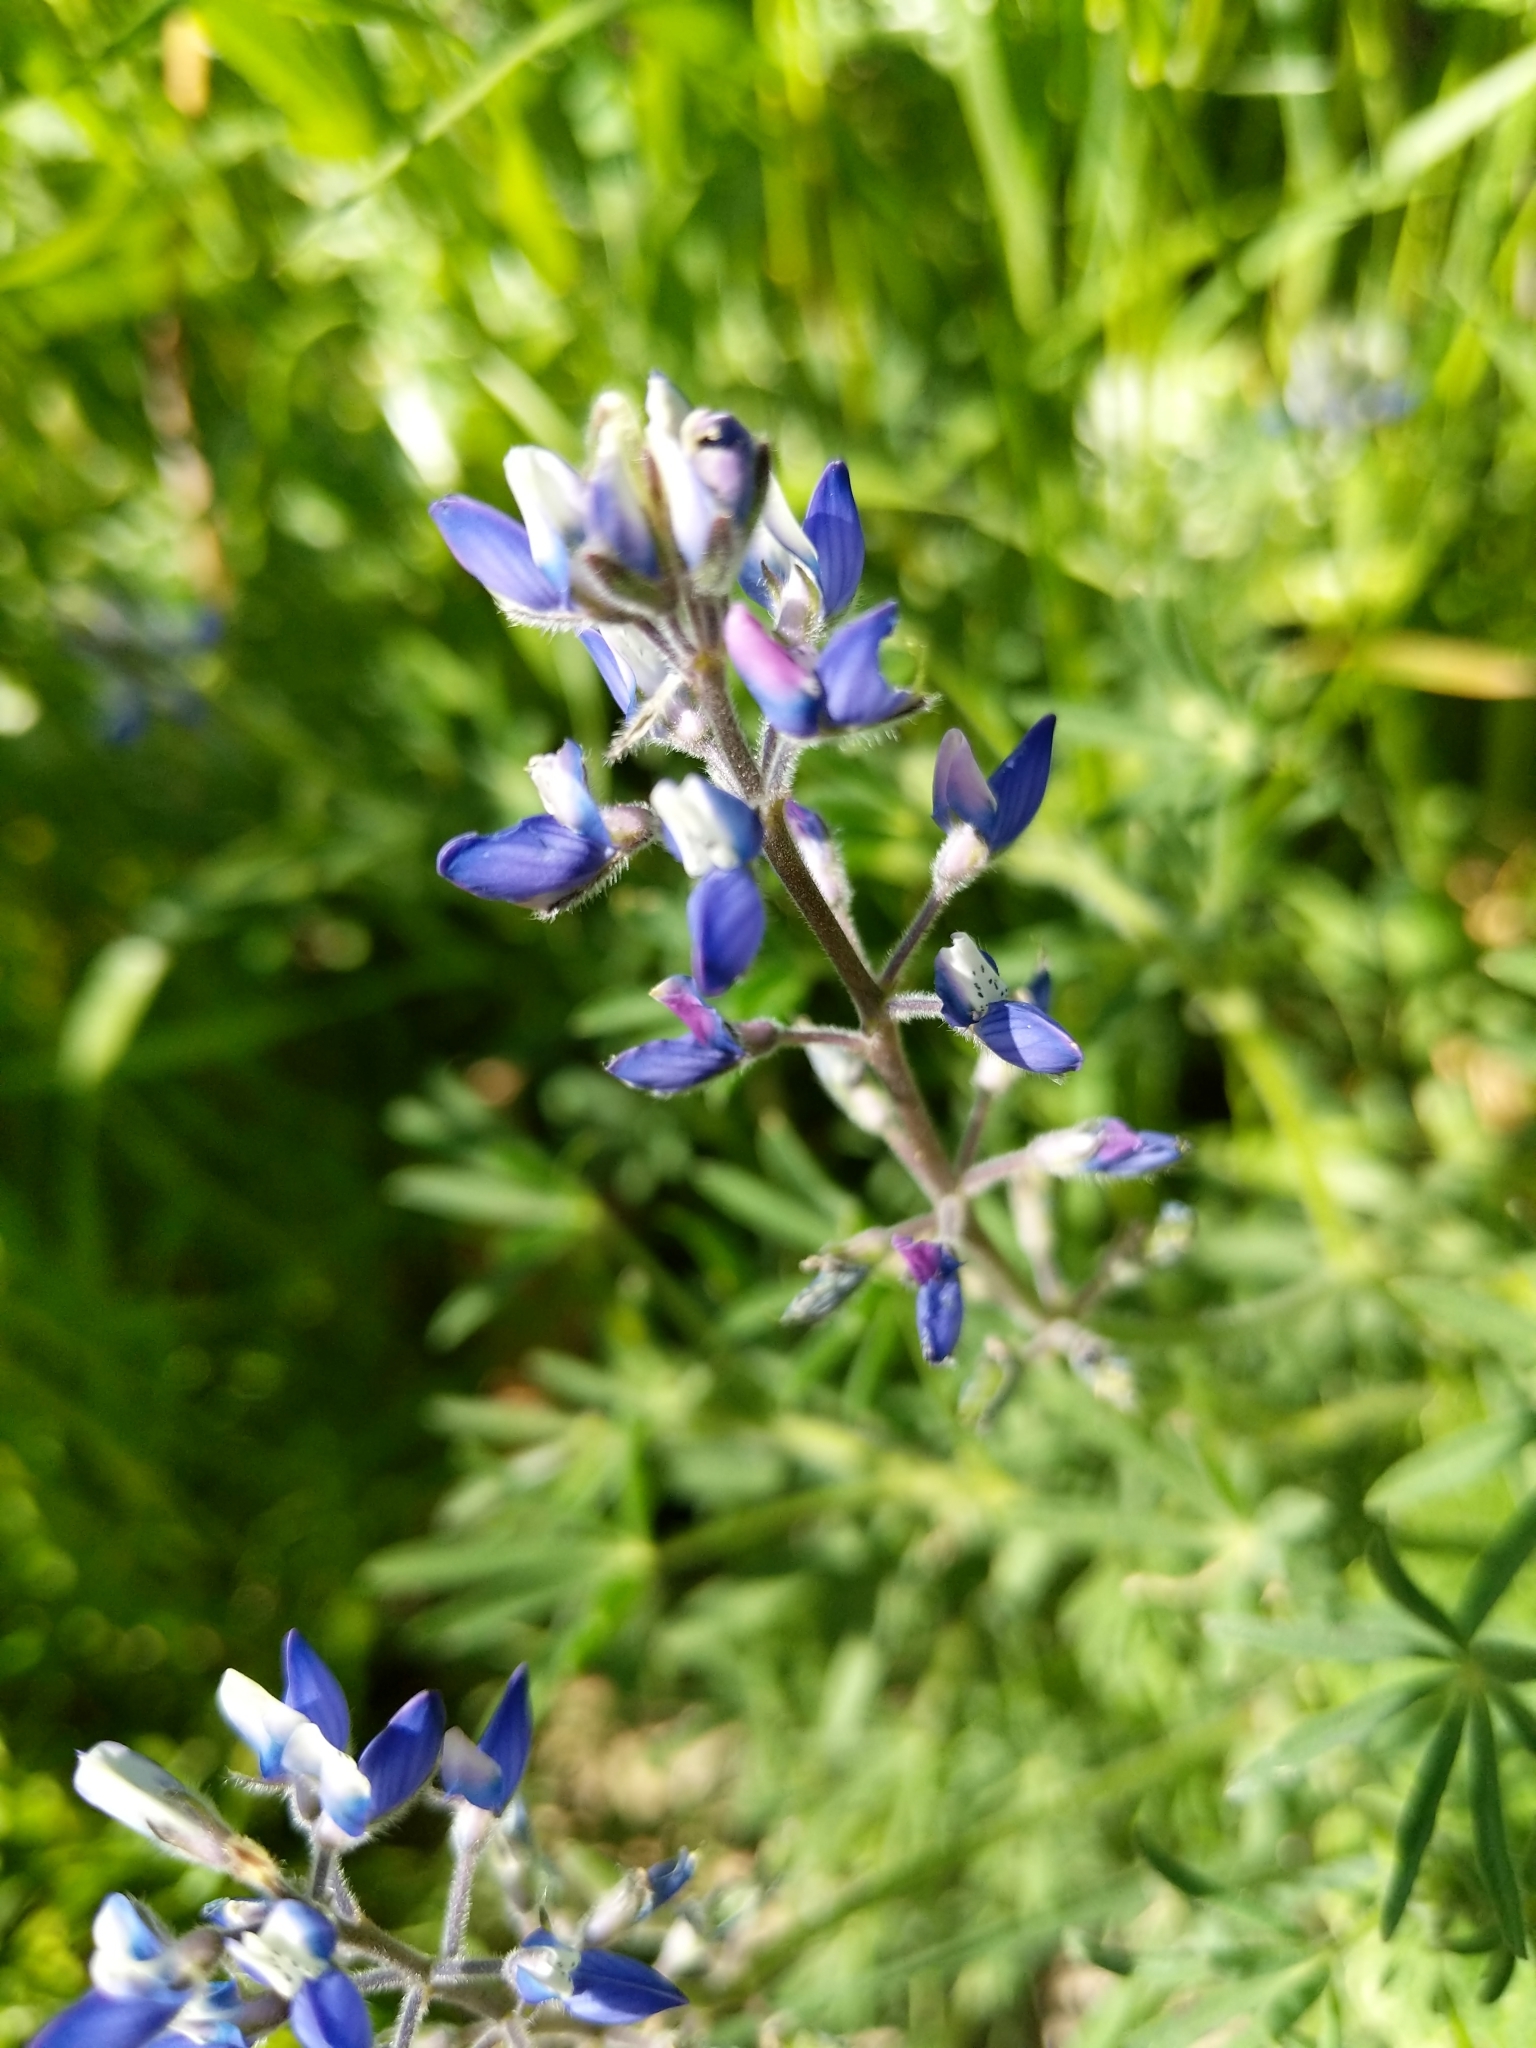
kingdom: Plantae
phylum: Tracheophyta
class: Magnoliopsida
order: Fabales
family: Fabaceae
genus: Lupinus
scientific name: Lupinus bicolor
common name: Miniature lupine
